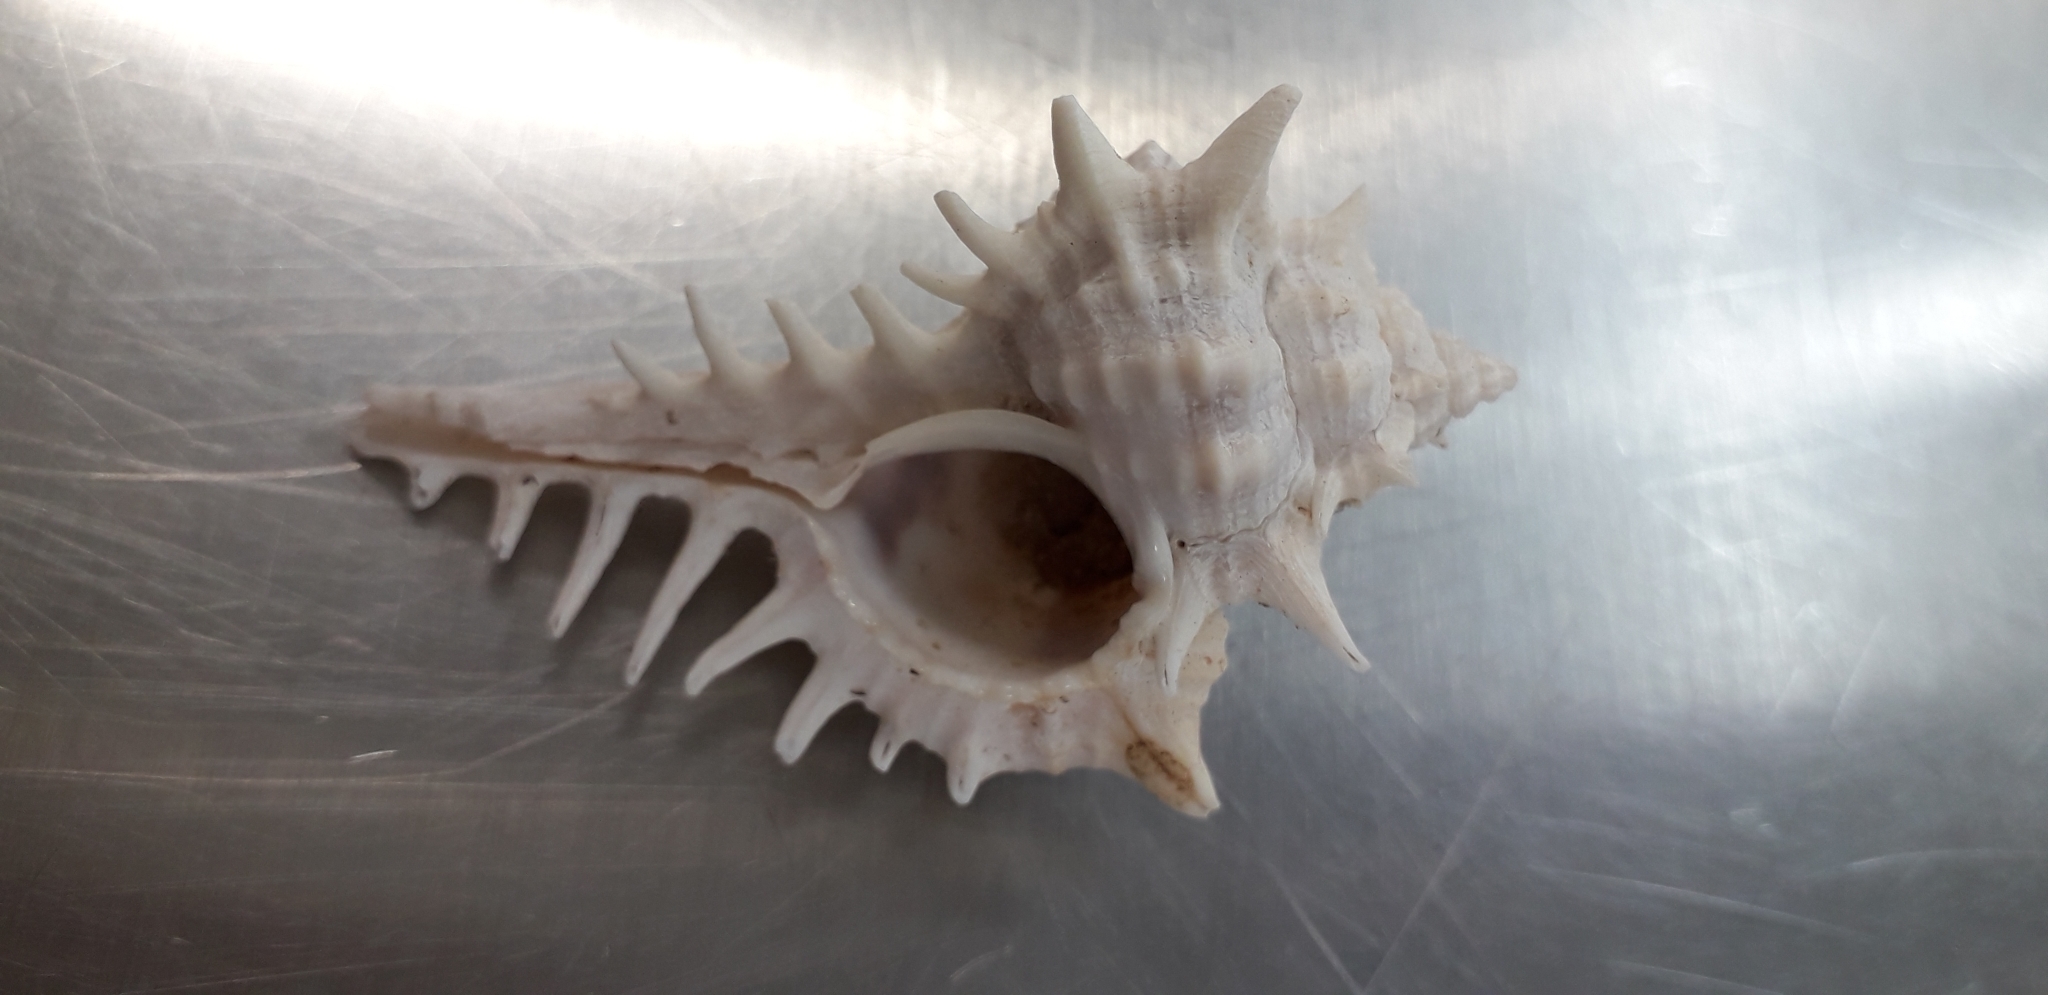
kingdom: Animalia
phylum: Mollusca
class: Gastropoda
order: Neogastropoda
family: Muricidae
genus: Vokesimurex
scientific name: Vokesimurex ruthae
